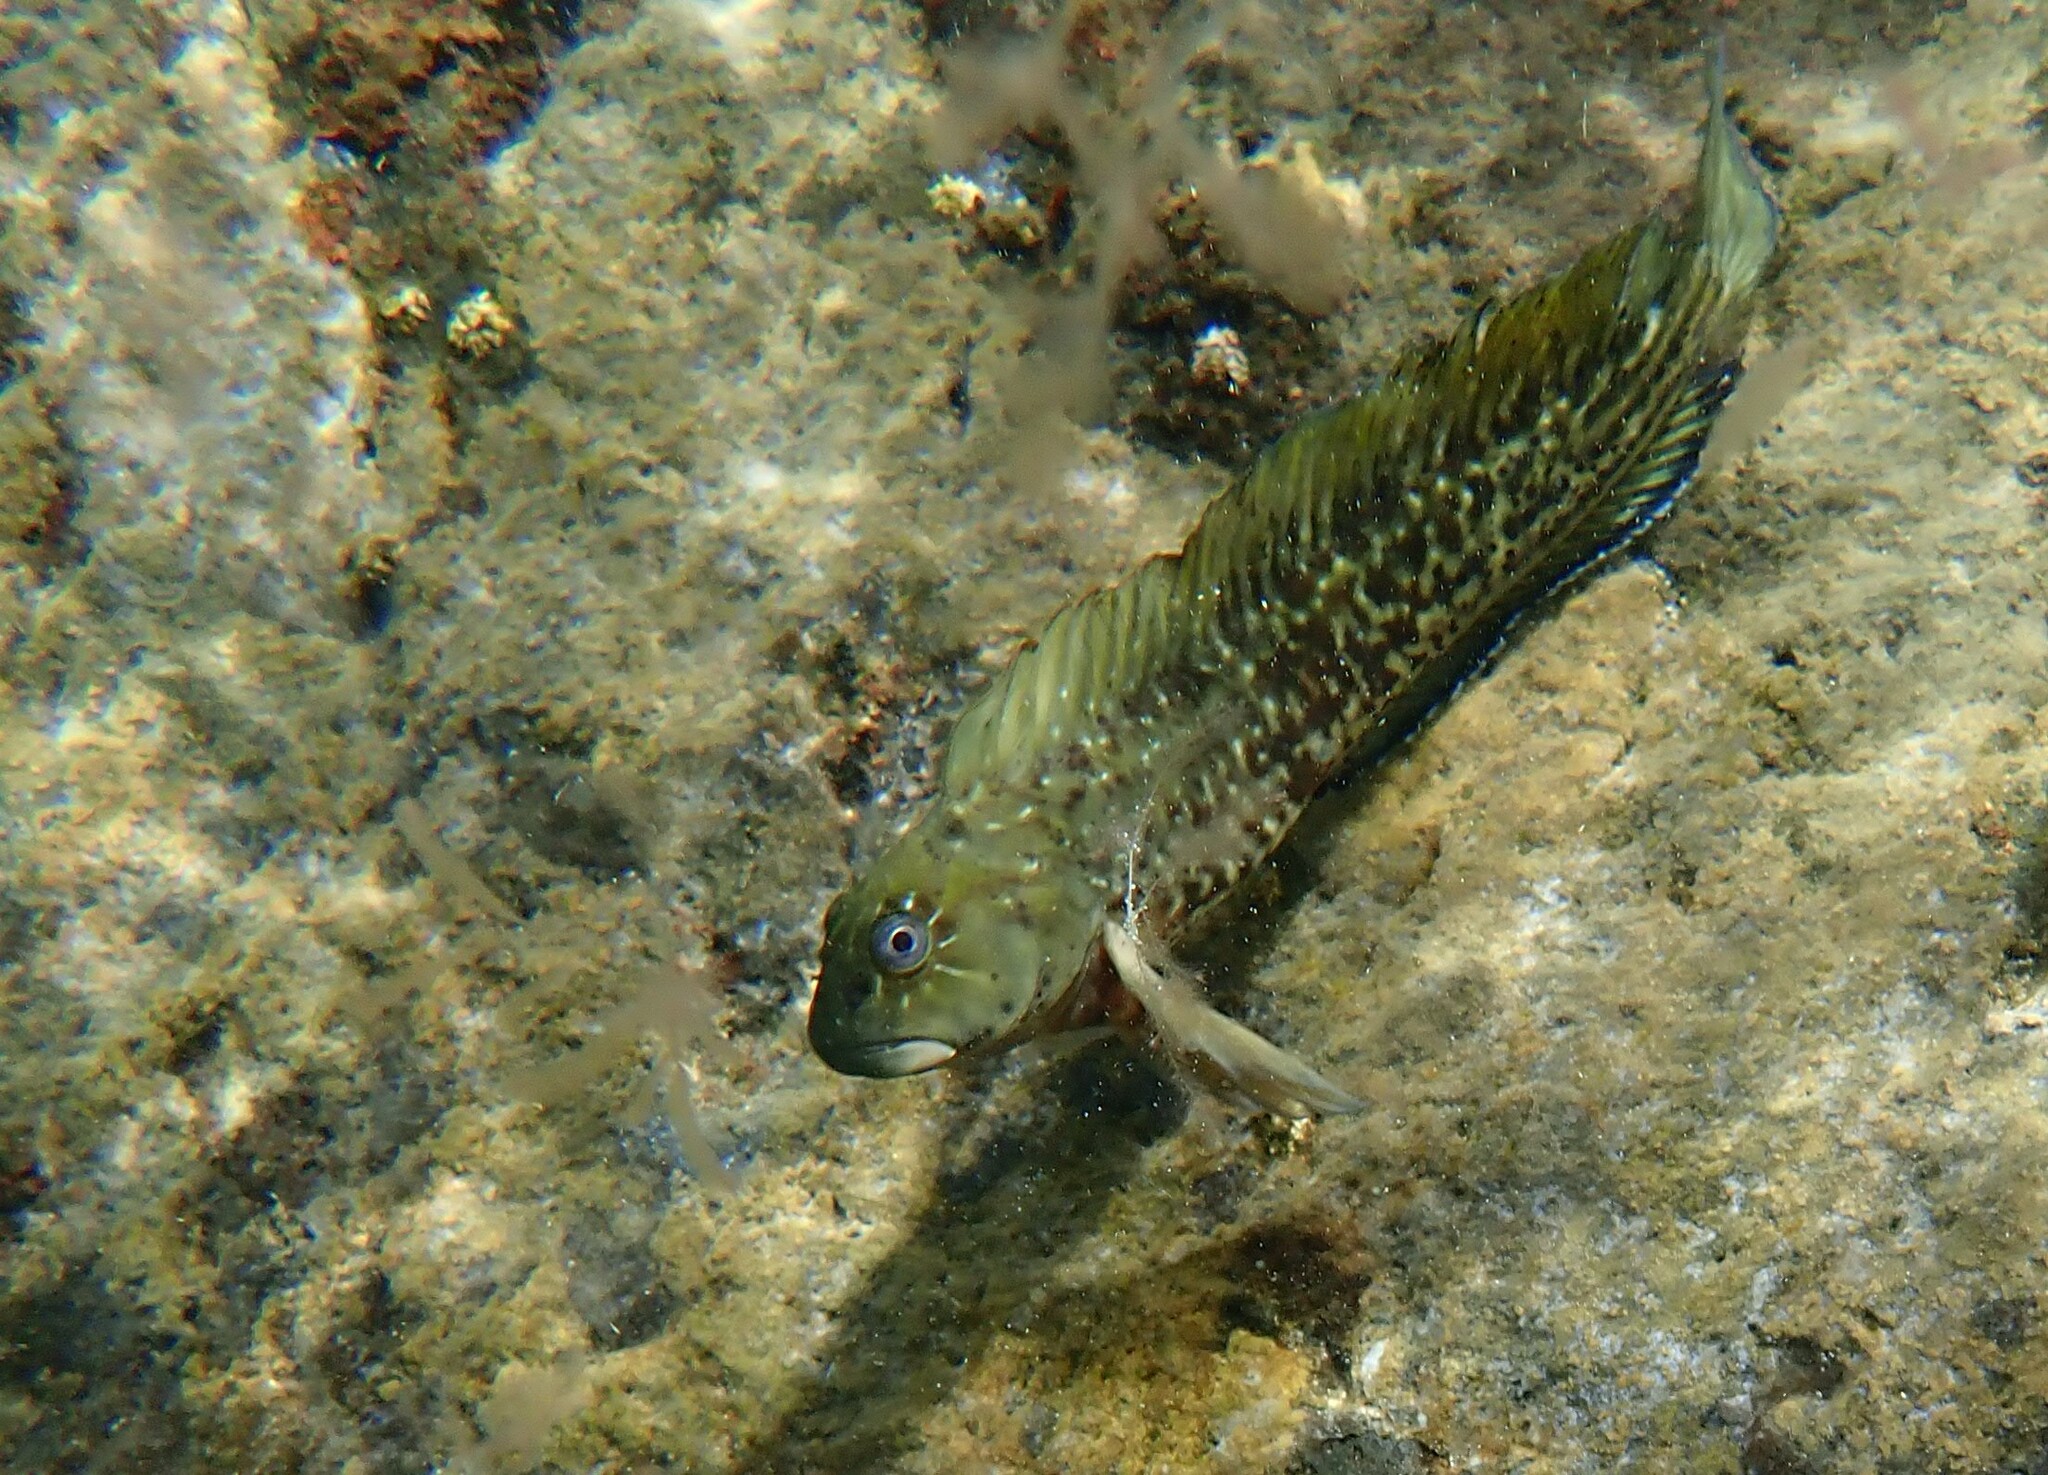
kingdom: Animalia
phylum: Chordata
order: Perciformes
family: Blenniidae
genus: Parablennius
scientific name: Parablennius parvicornis
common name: Rock-pool blenny
